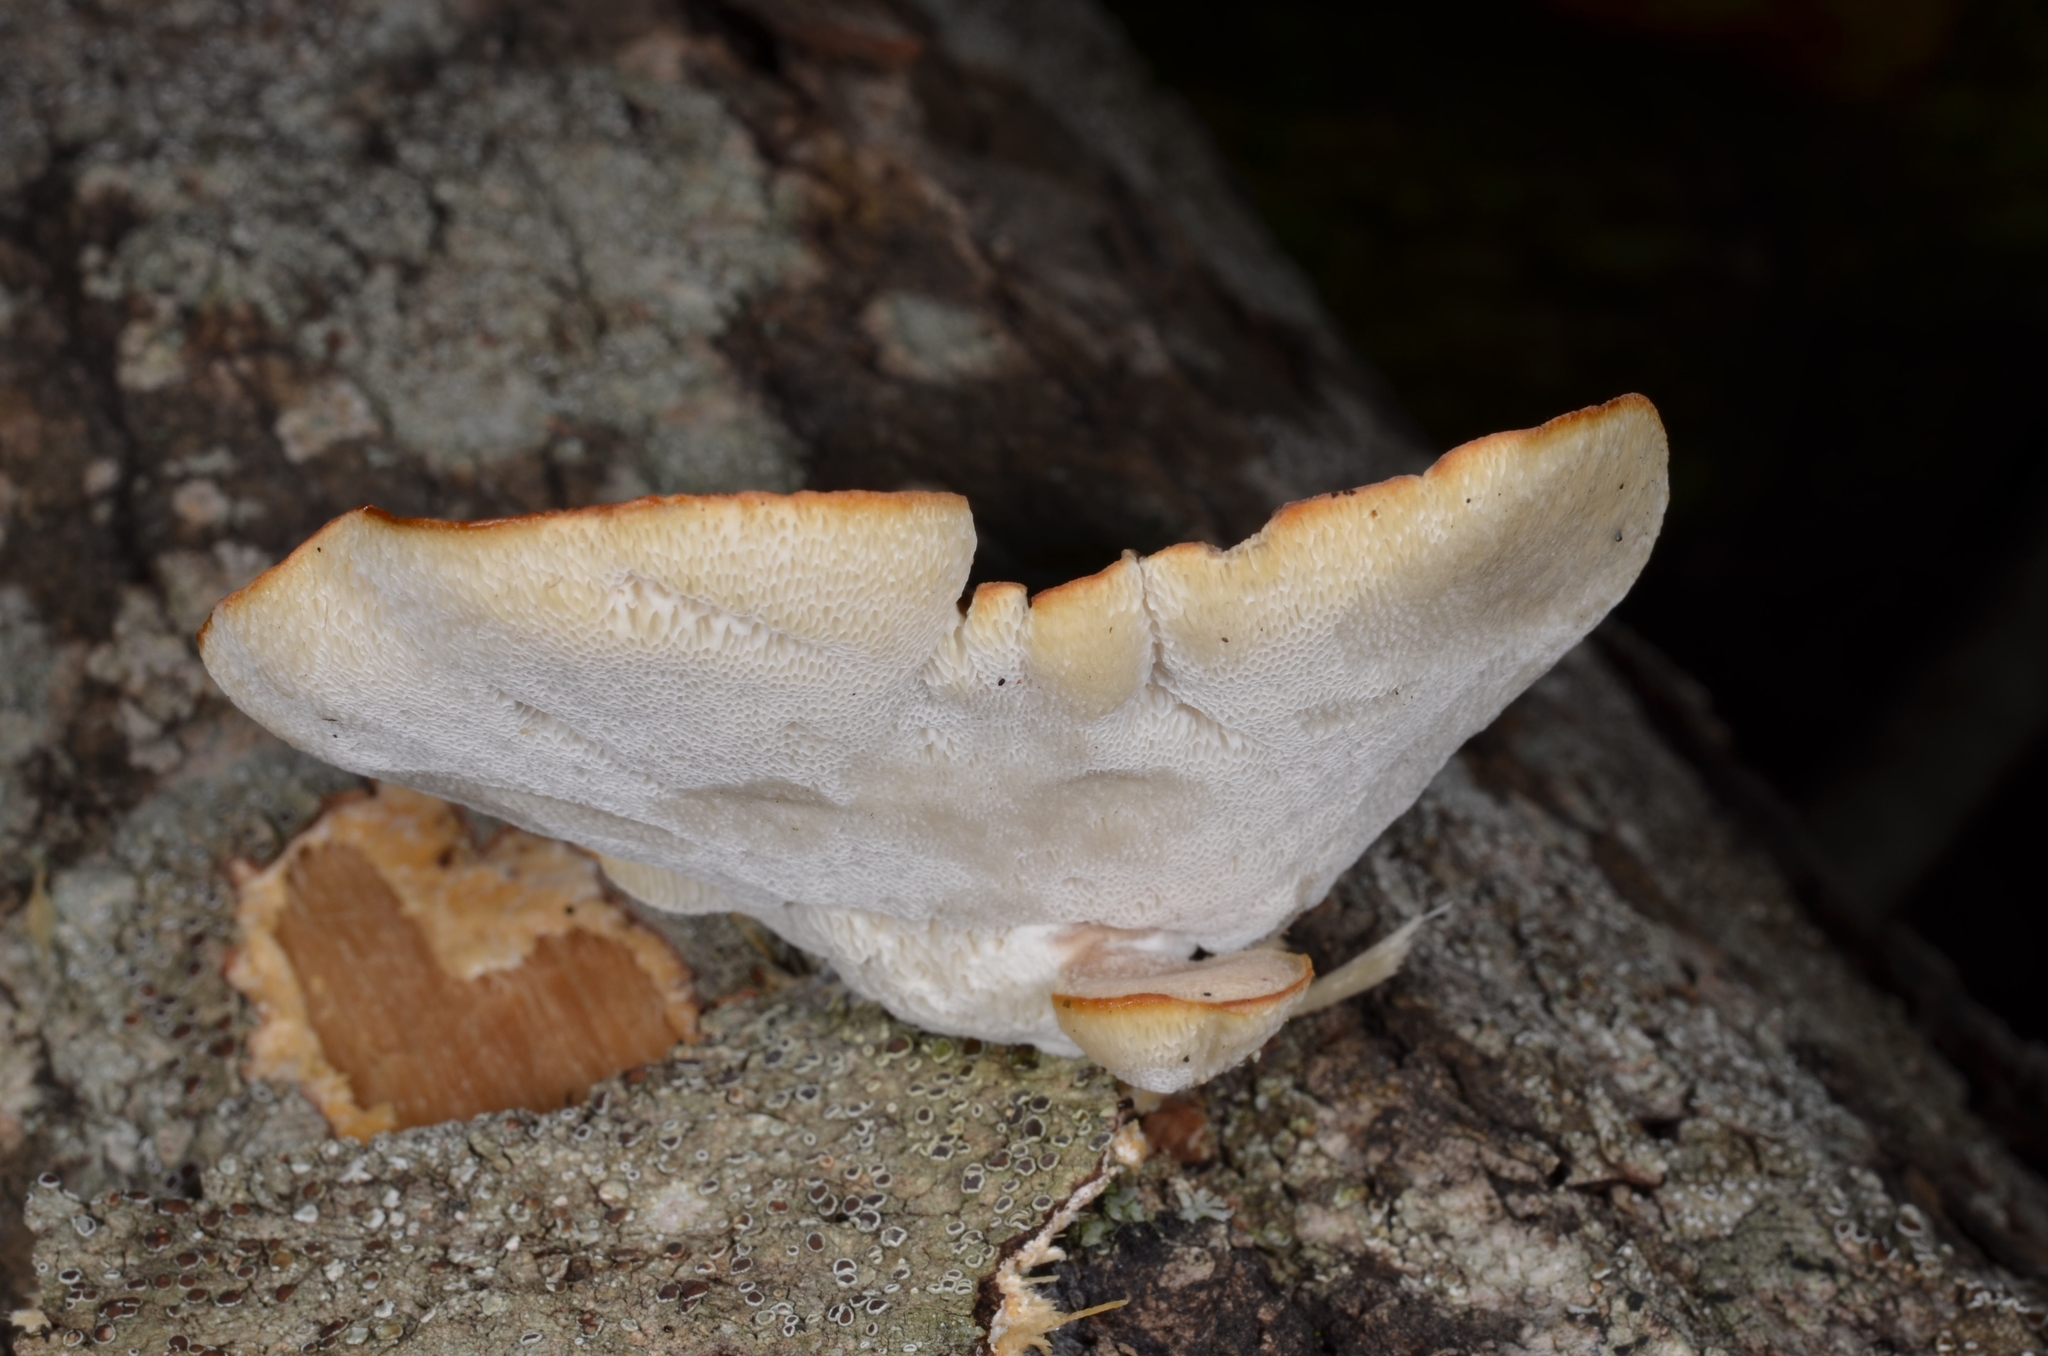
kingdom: Fungi
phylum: Basidiomycota
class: Agaricomycetes
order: Polyporales
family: Polyporaceae
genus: Favolus
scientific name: Favolus pseudobetulinus
